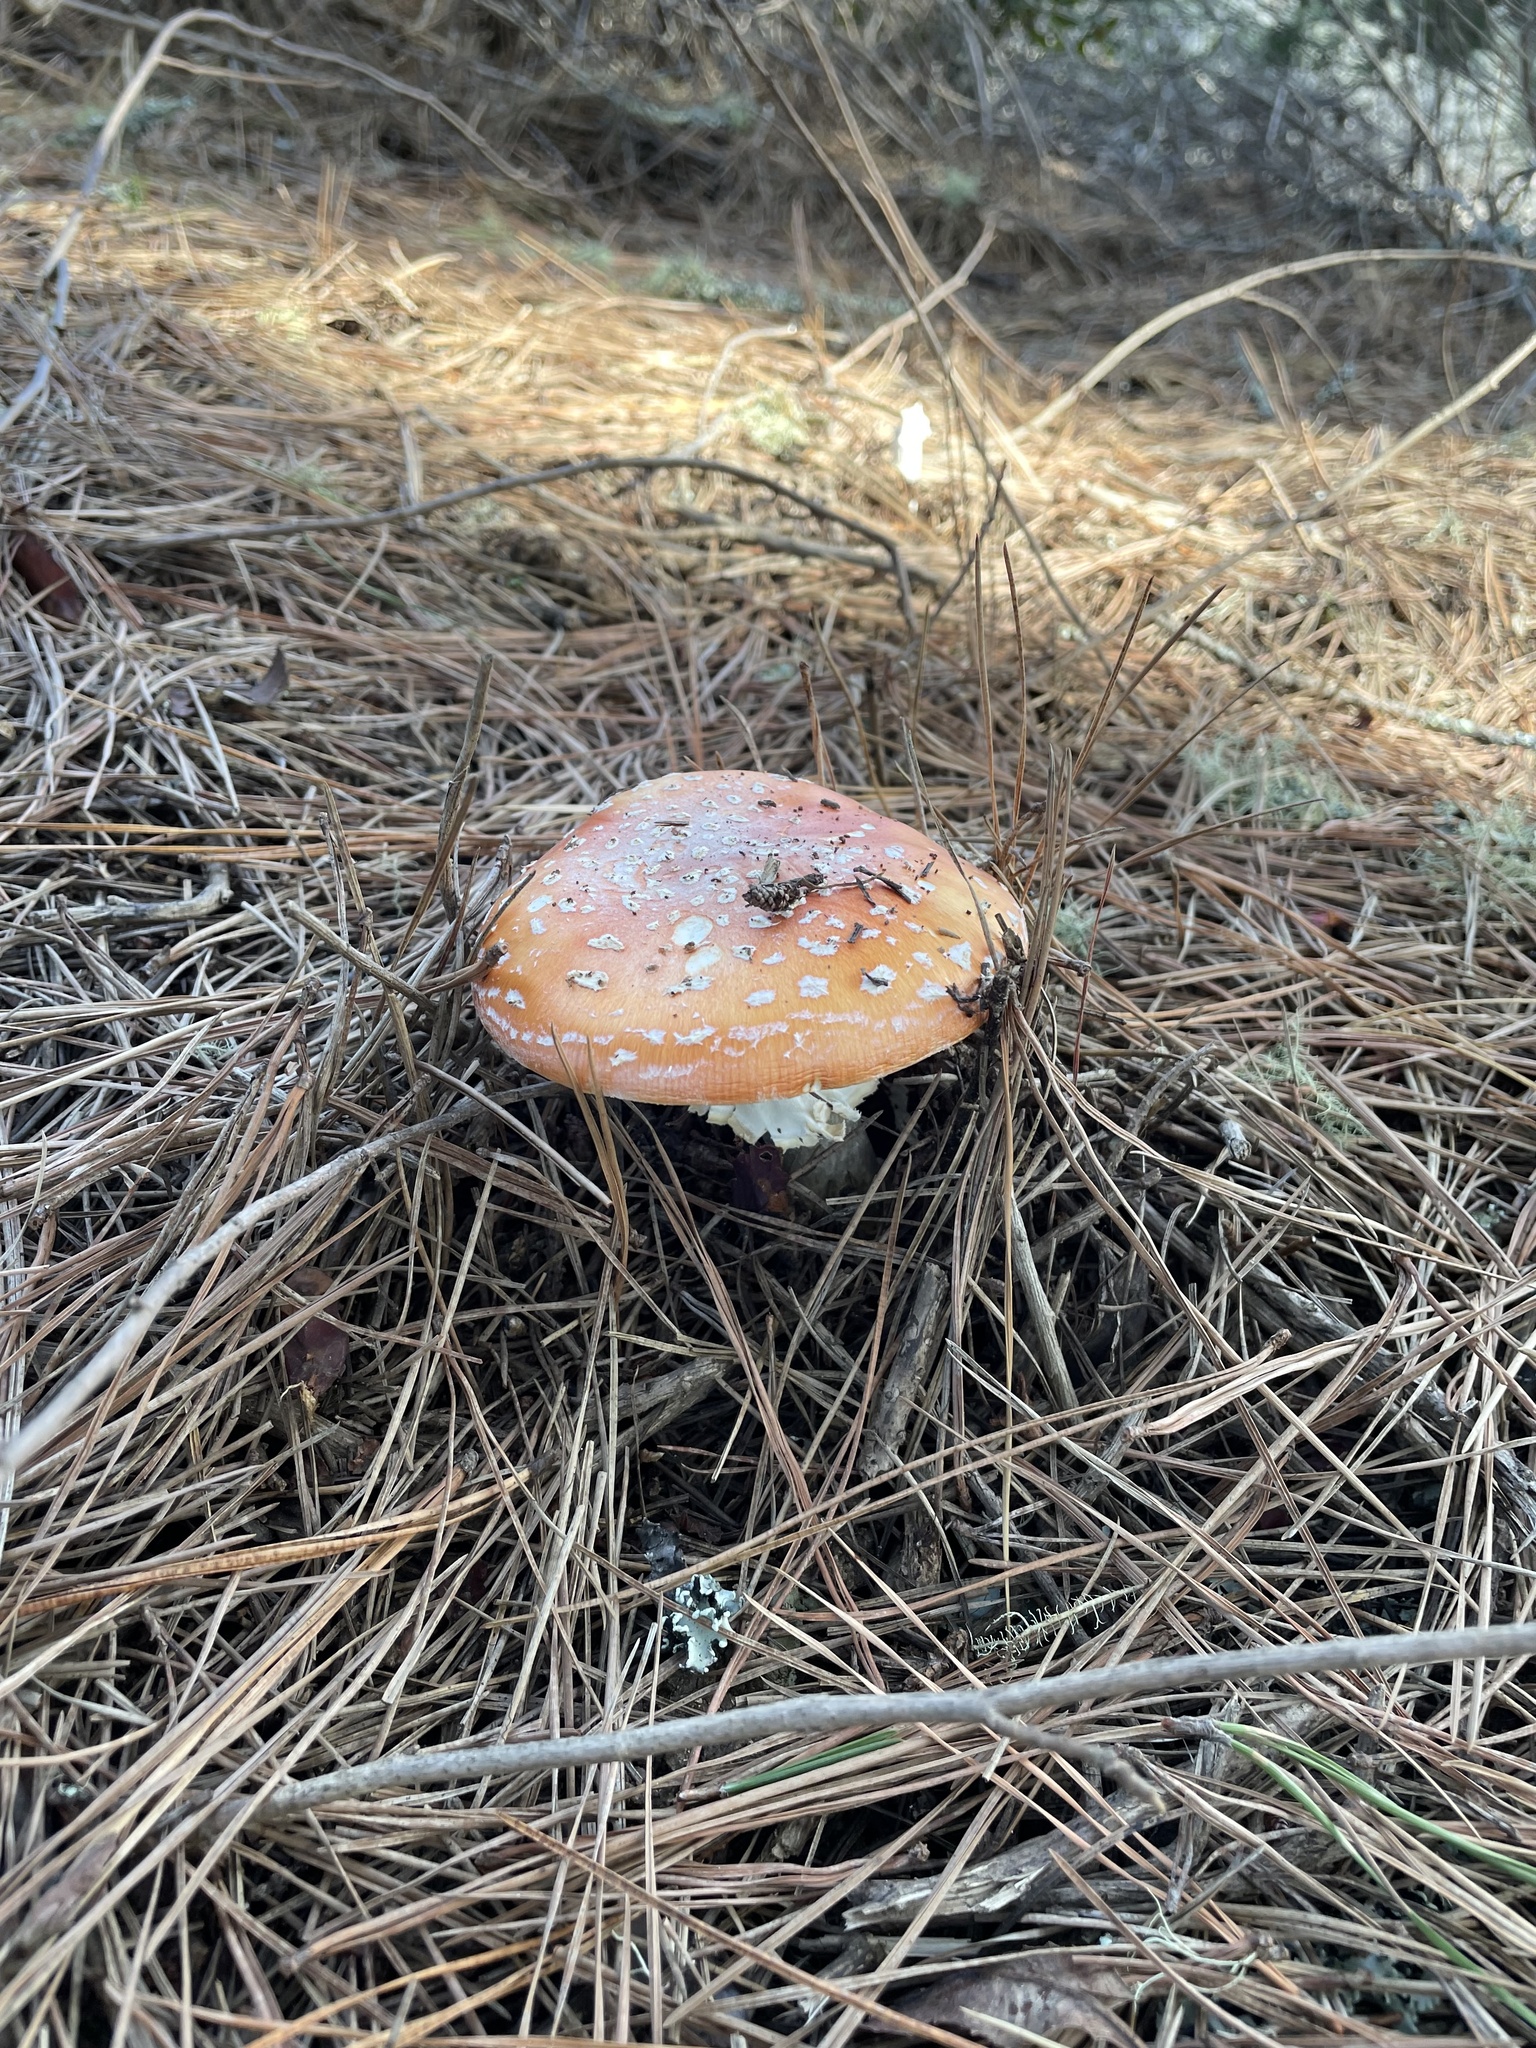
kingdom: Fungi
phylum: Basidiomycota
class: Agaricomycetes
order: Agaricales
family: Amanitaceae
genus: Amanita
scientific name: Amanita muscaria
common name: Fly agaric
